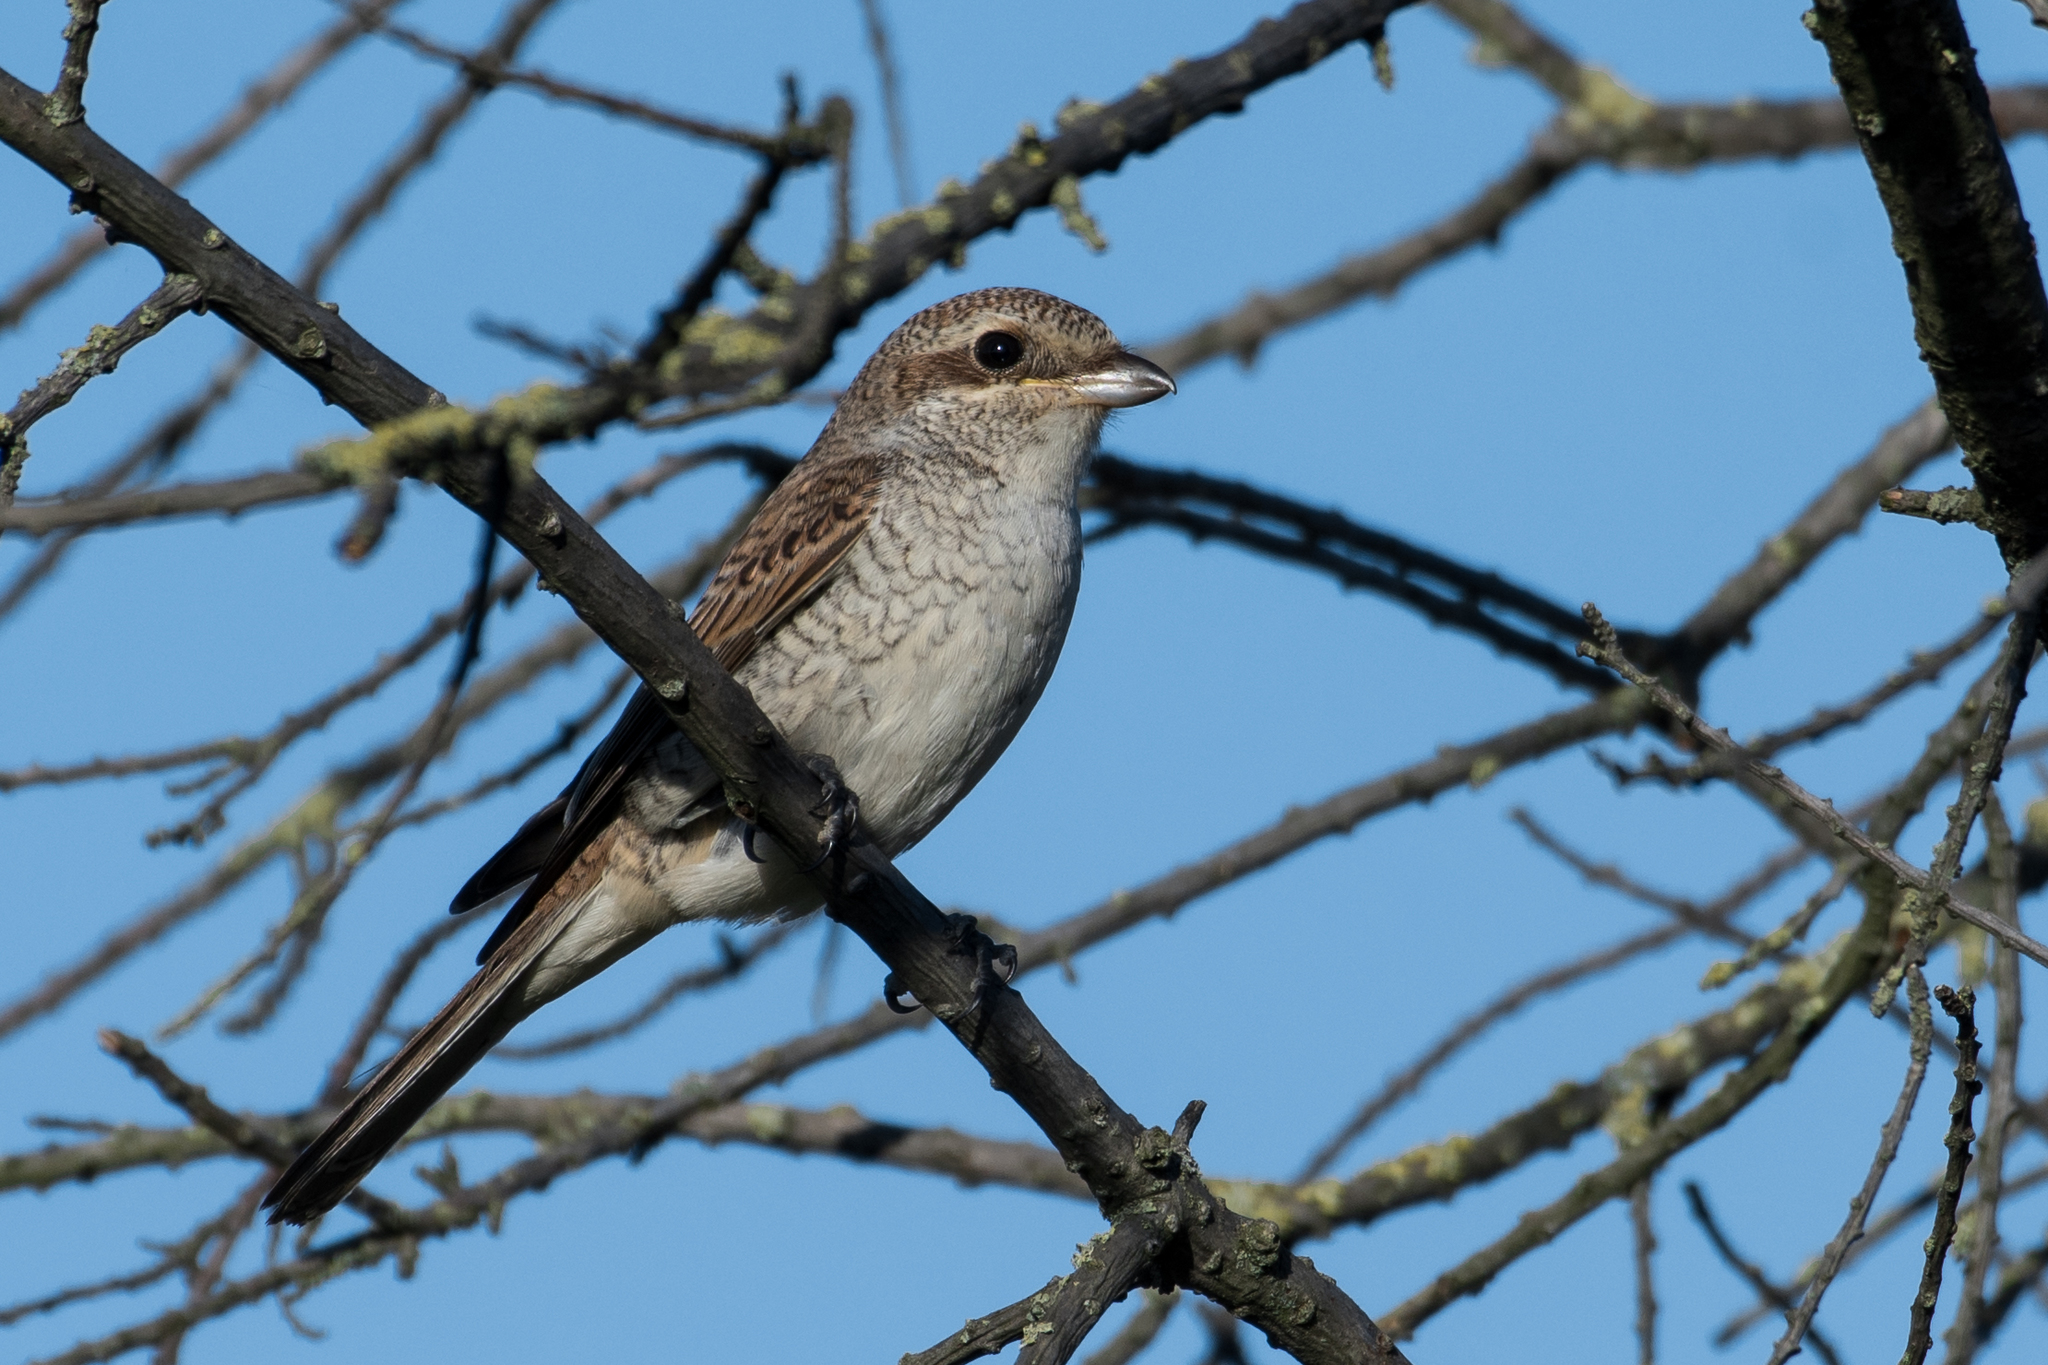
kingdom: Animalia
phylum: Chordata
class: Aves
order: Passeriformes
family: Laniidae
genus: Lanius
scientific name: Lanius collurio
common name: Red-backed shrike
